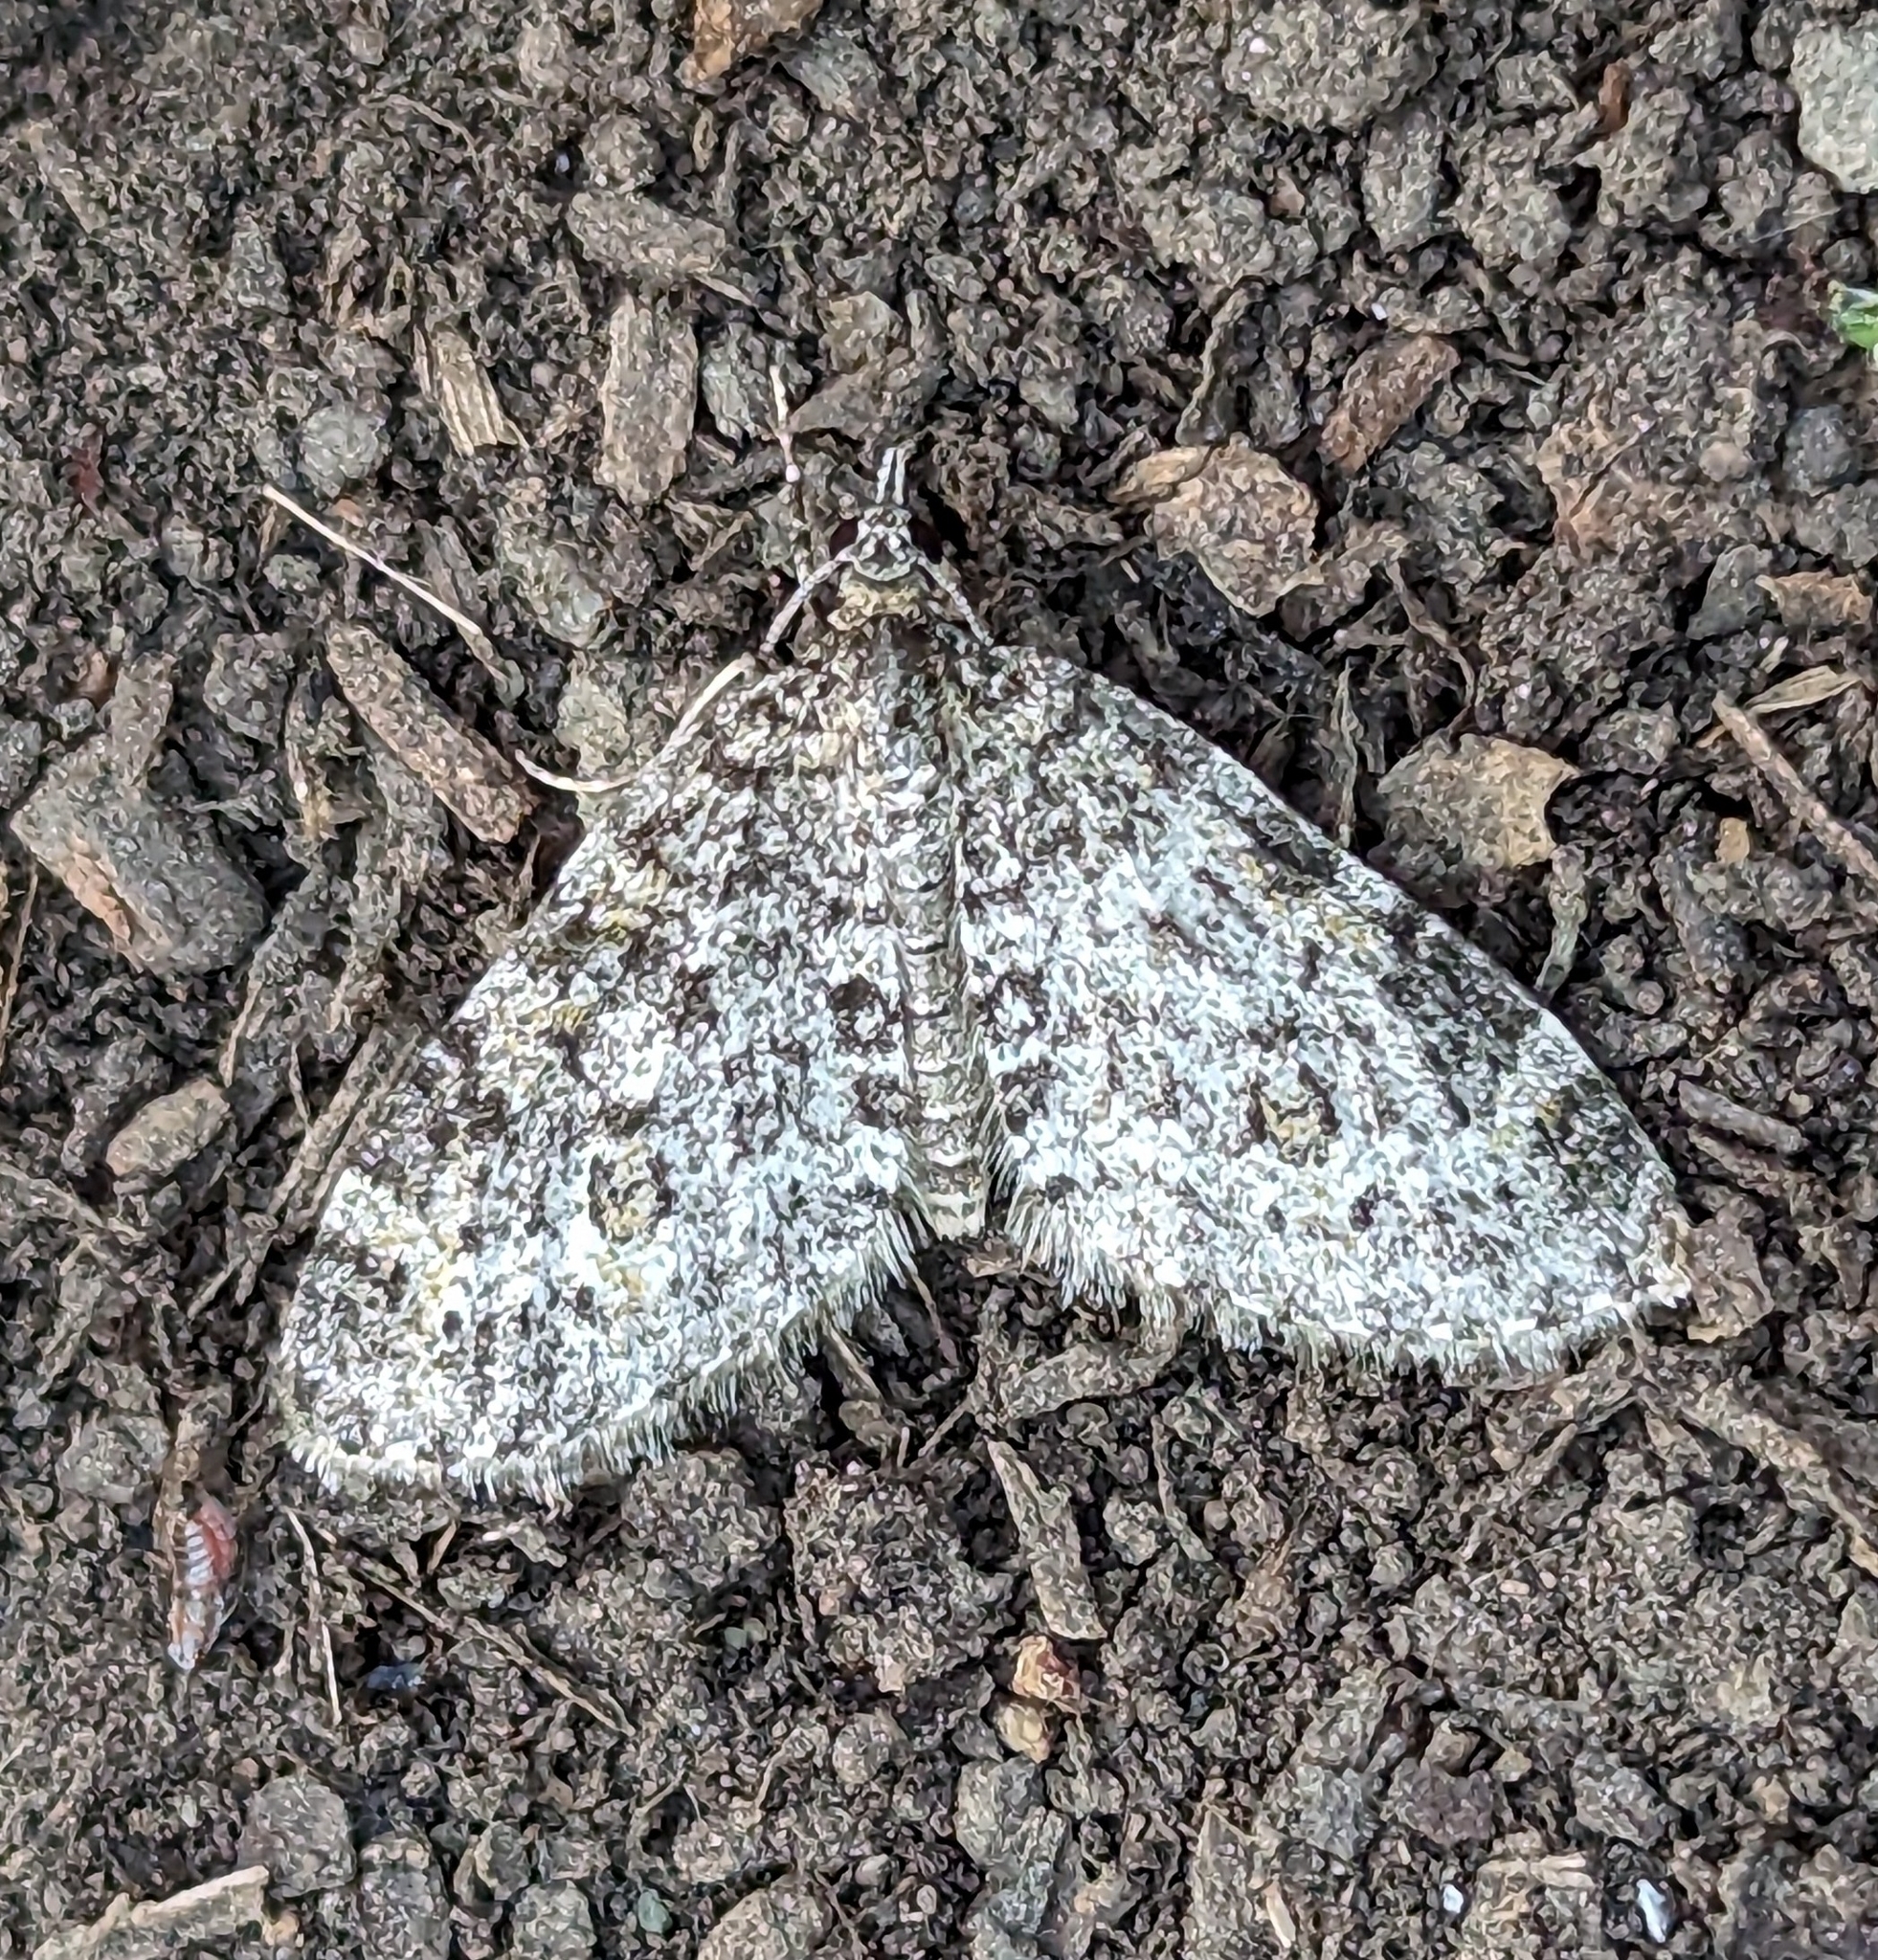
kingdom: Animalia
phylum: Arthropoda
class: Insecta
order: Lepidoptera
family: Geometridae
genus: Acasis
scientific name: Acasis viridata
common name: Olive-and-black carpet moth
